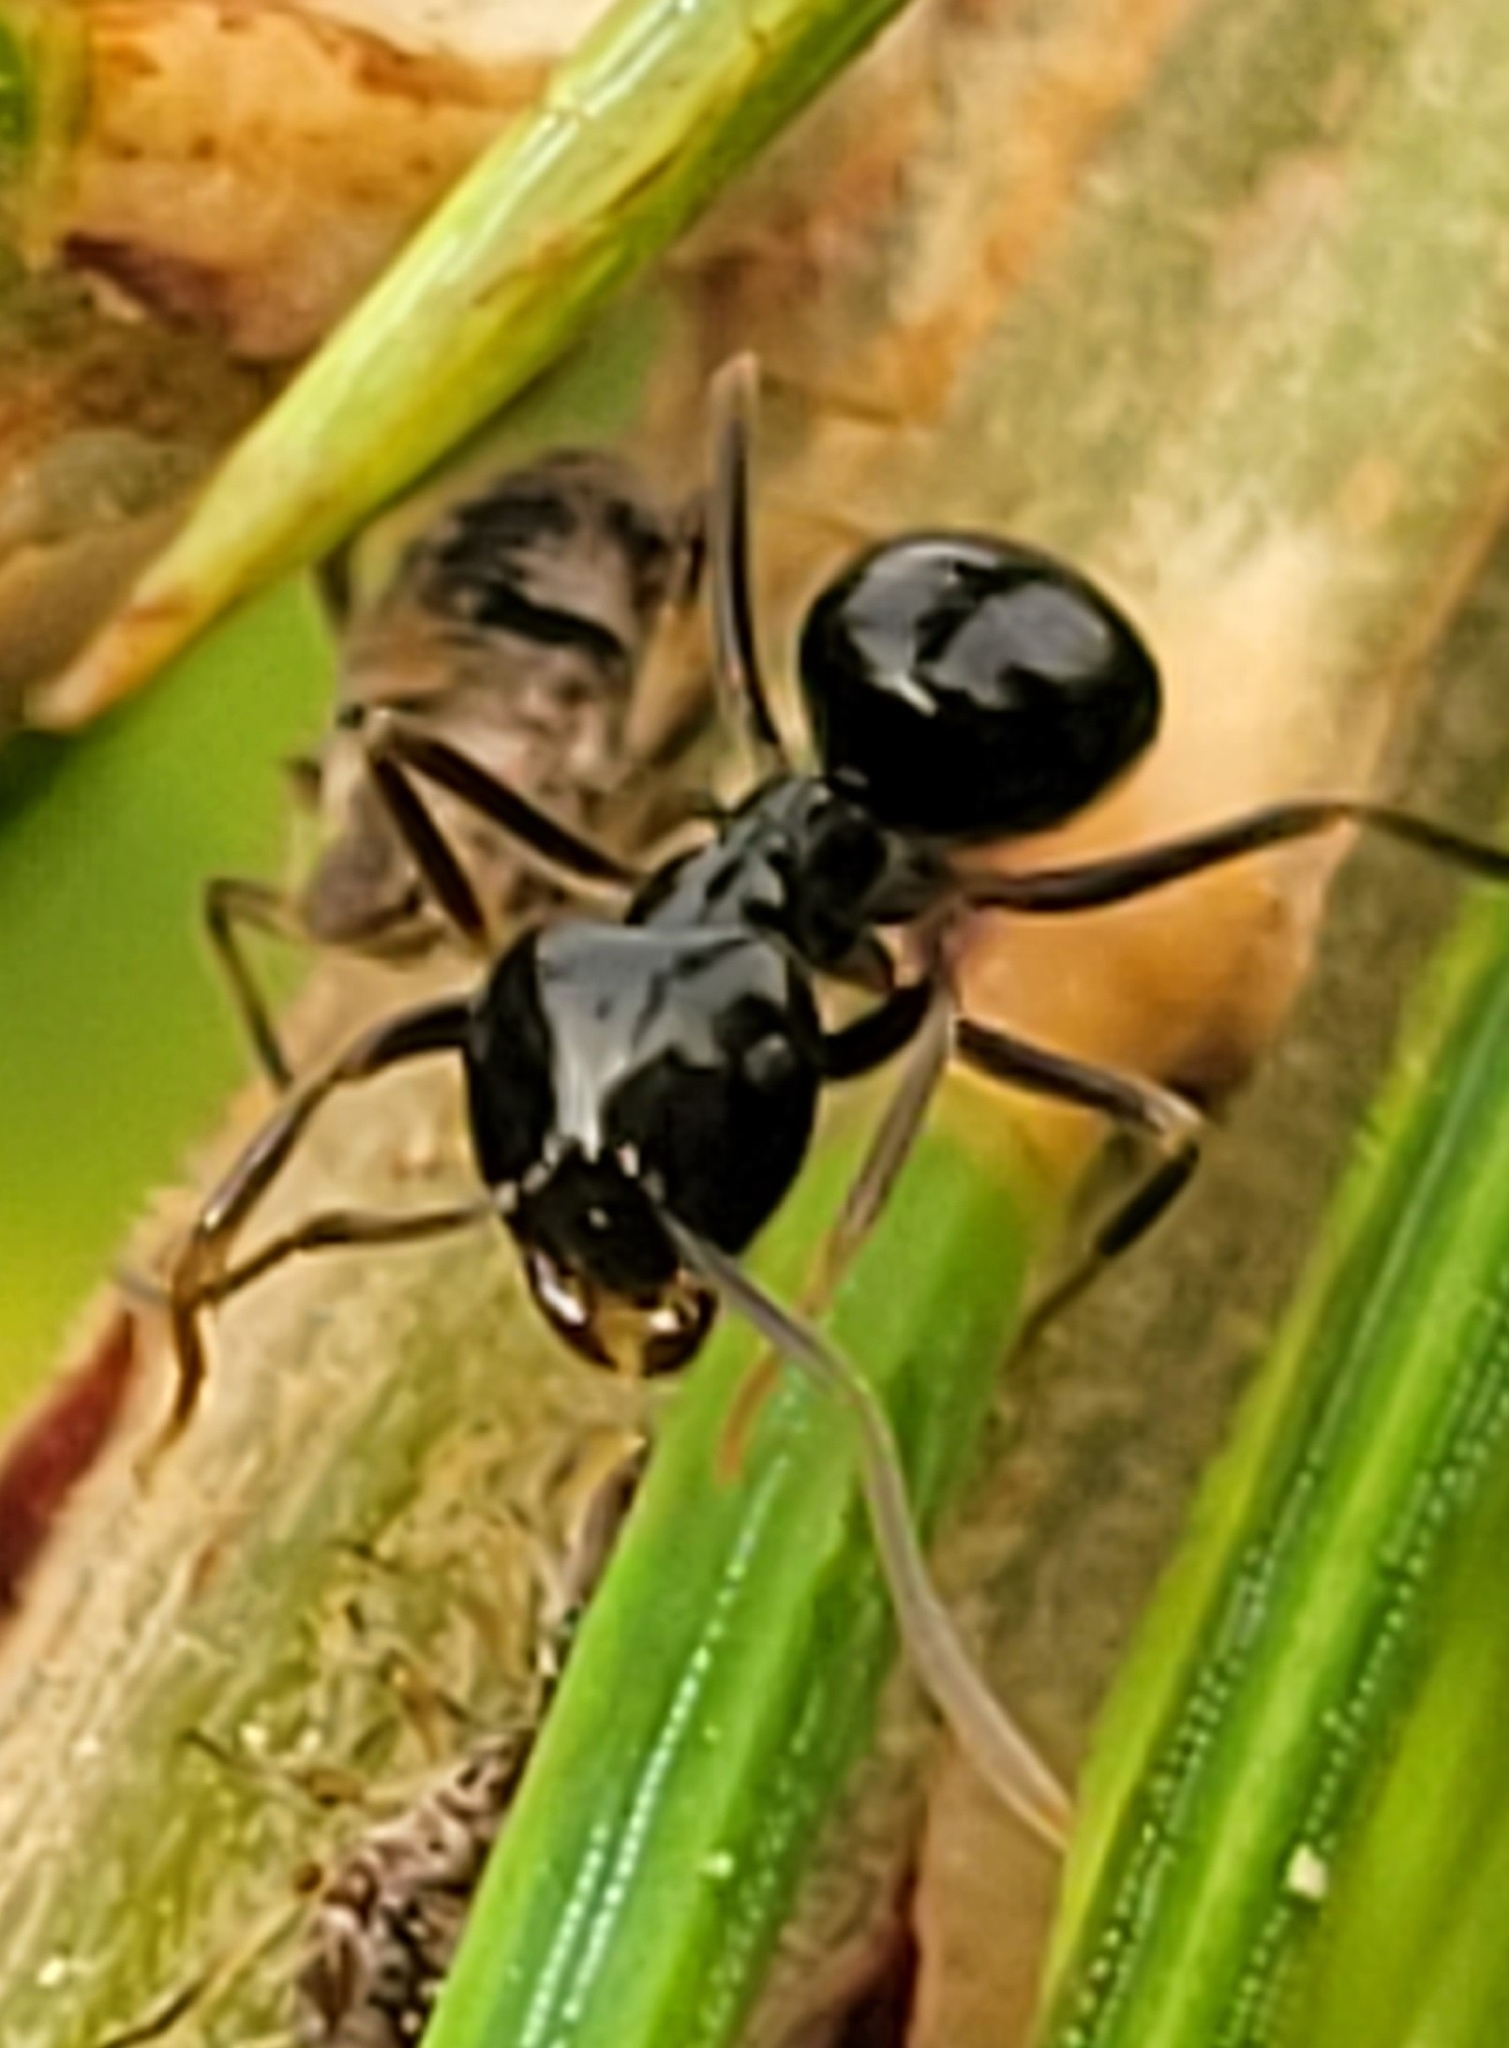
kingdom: Animalia
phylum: Arthropoda
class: Insecta
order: Hymenoptera
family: Formicidae
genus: Lasius
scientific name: Lasius fuliginosus
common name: Jet ant
